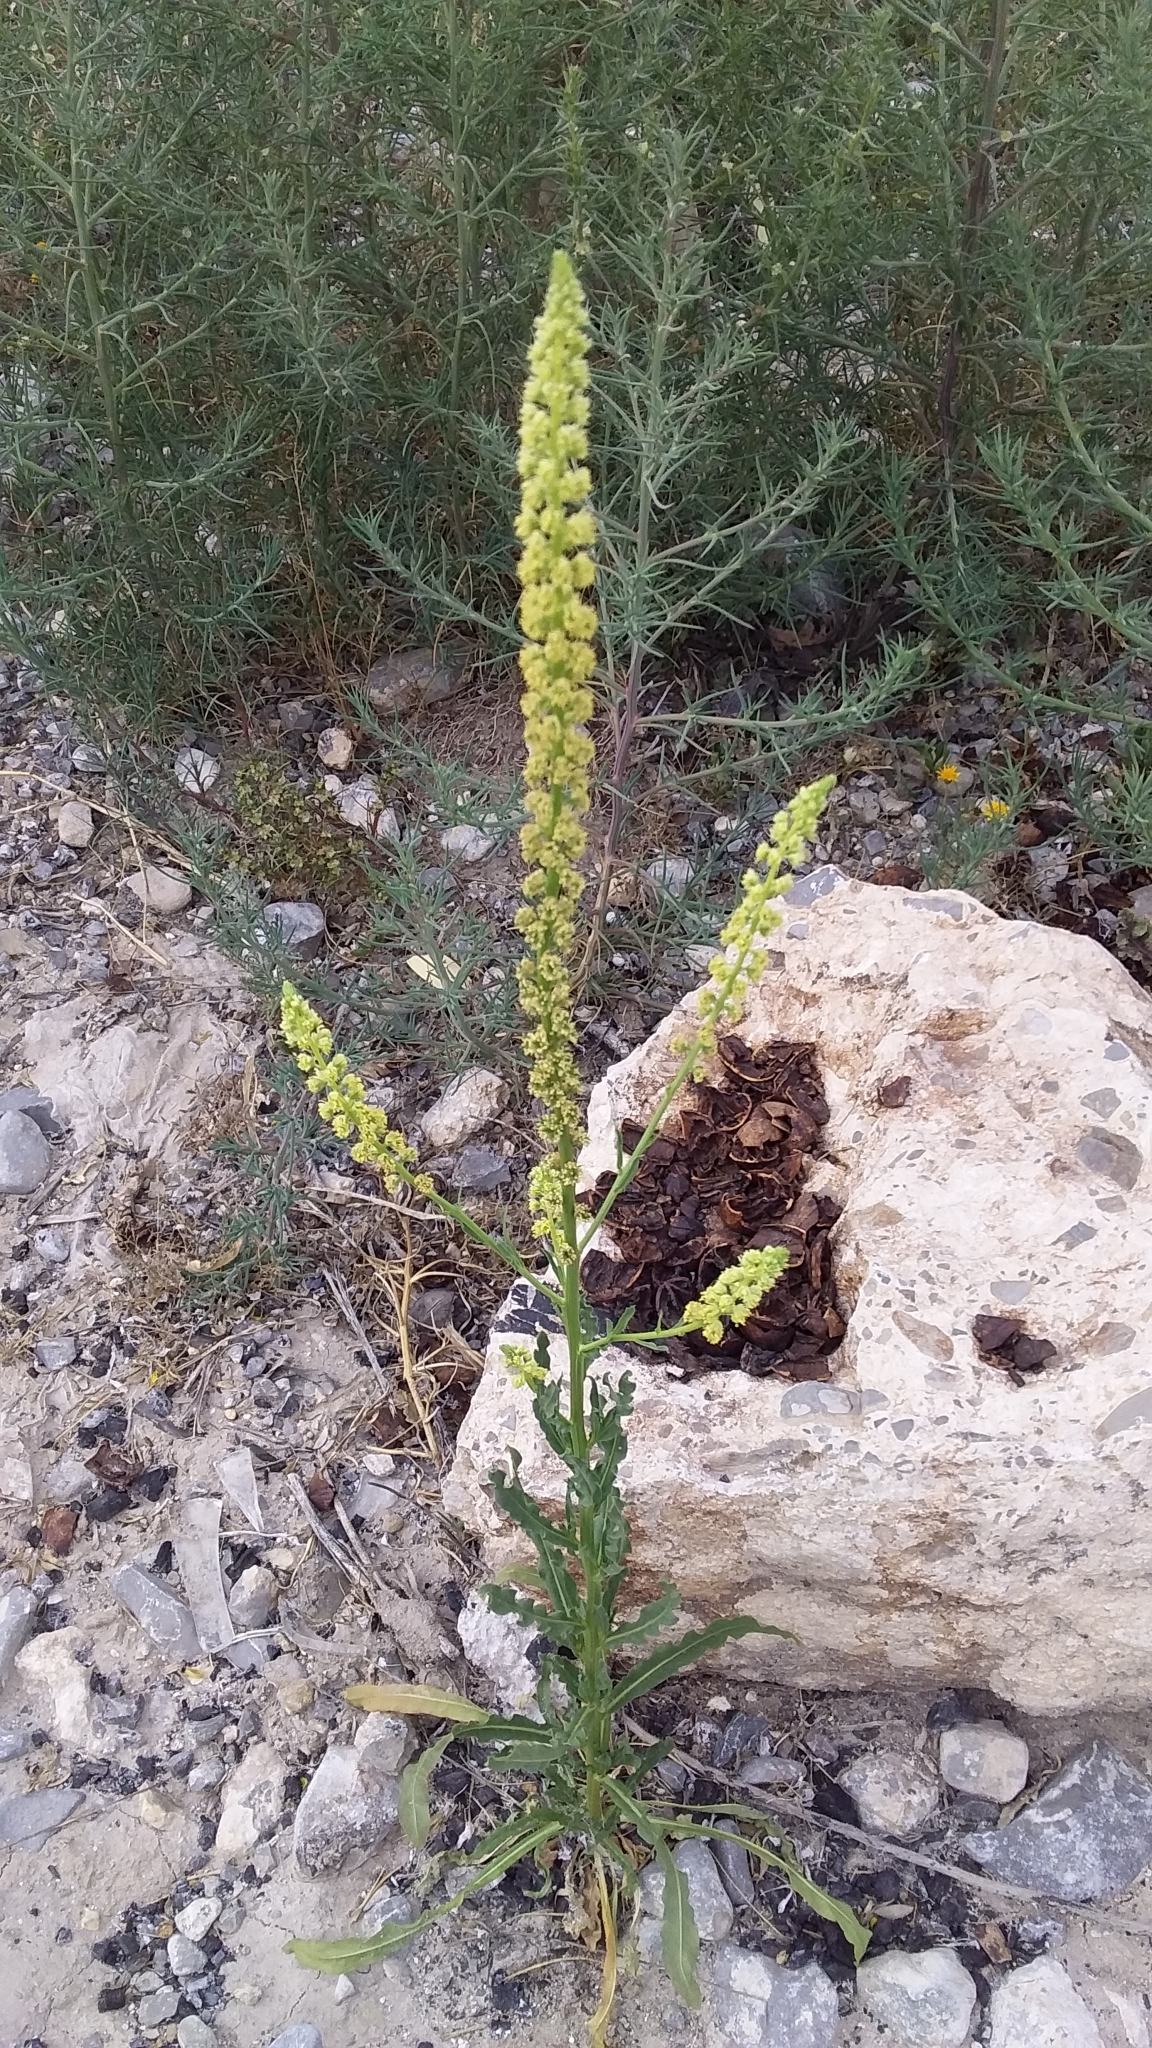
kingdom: Plantae
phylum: Tracheophyta
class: Magnoliopsida
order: Brassicales
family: Resedaceae
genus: Reseda
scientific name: Reseda luteola
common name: Weld
